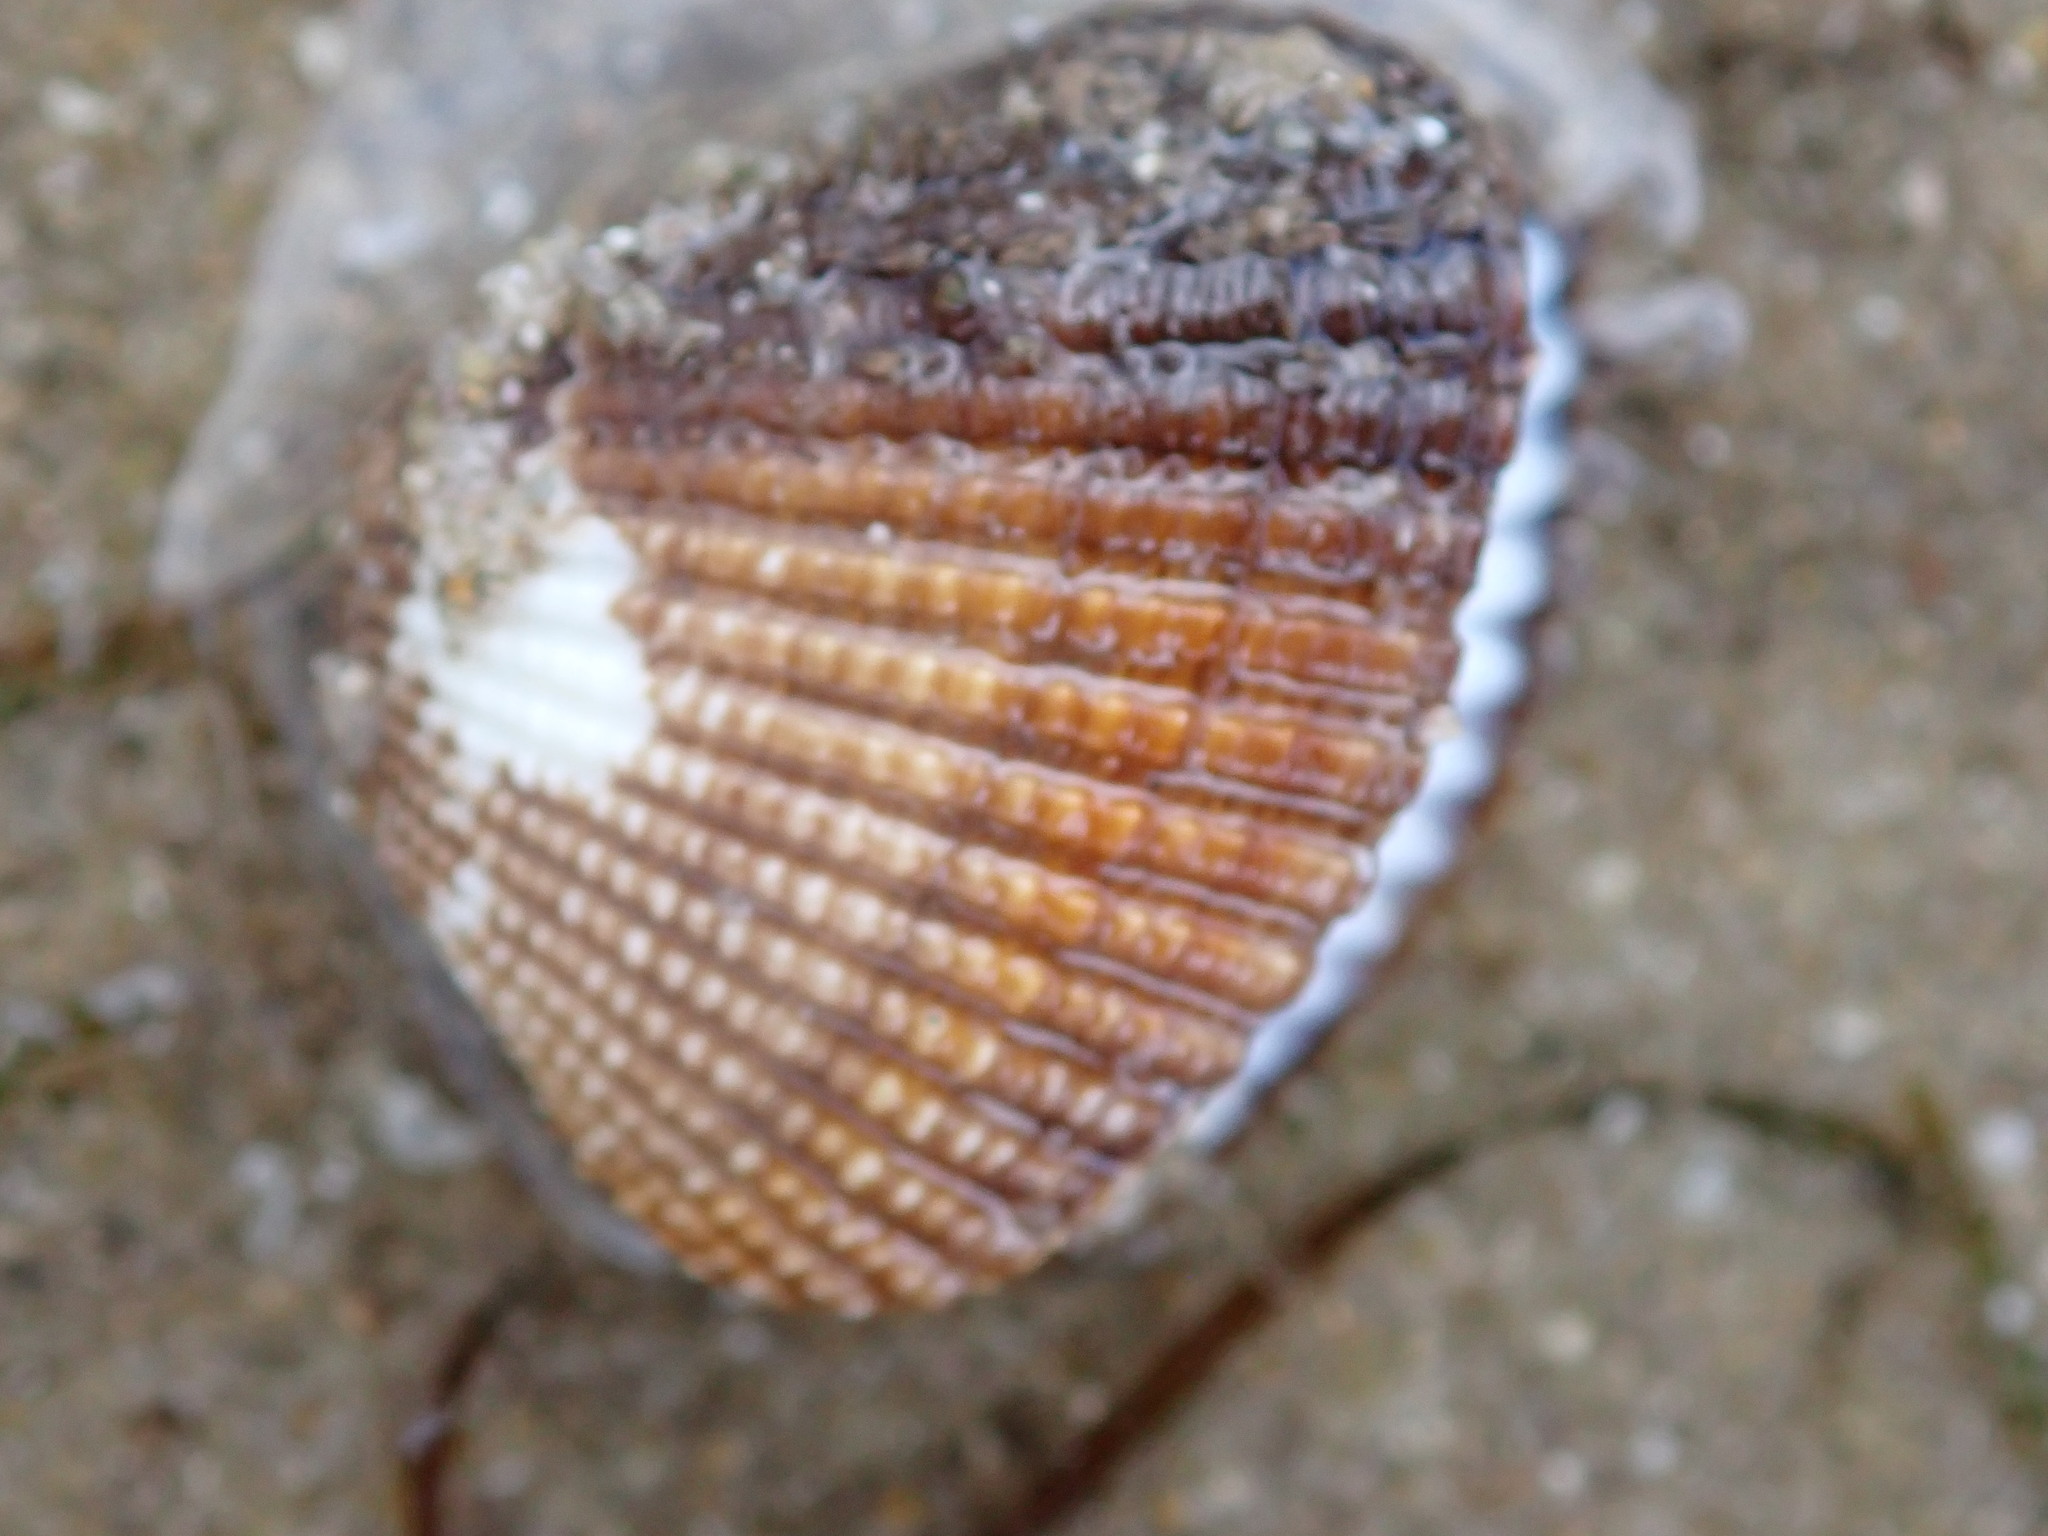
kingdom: Animalia
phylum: Mollusca
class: Bivalvia
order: Arcida
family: Arcidae
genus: Anadara
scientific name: Anadara trapezia
